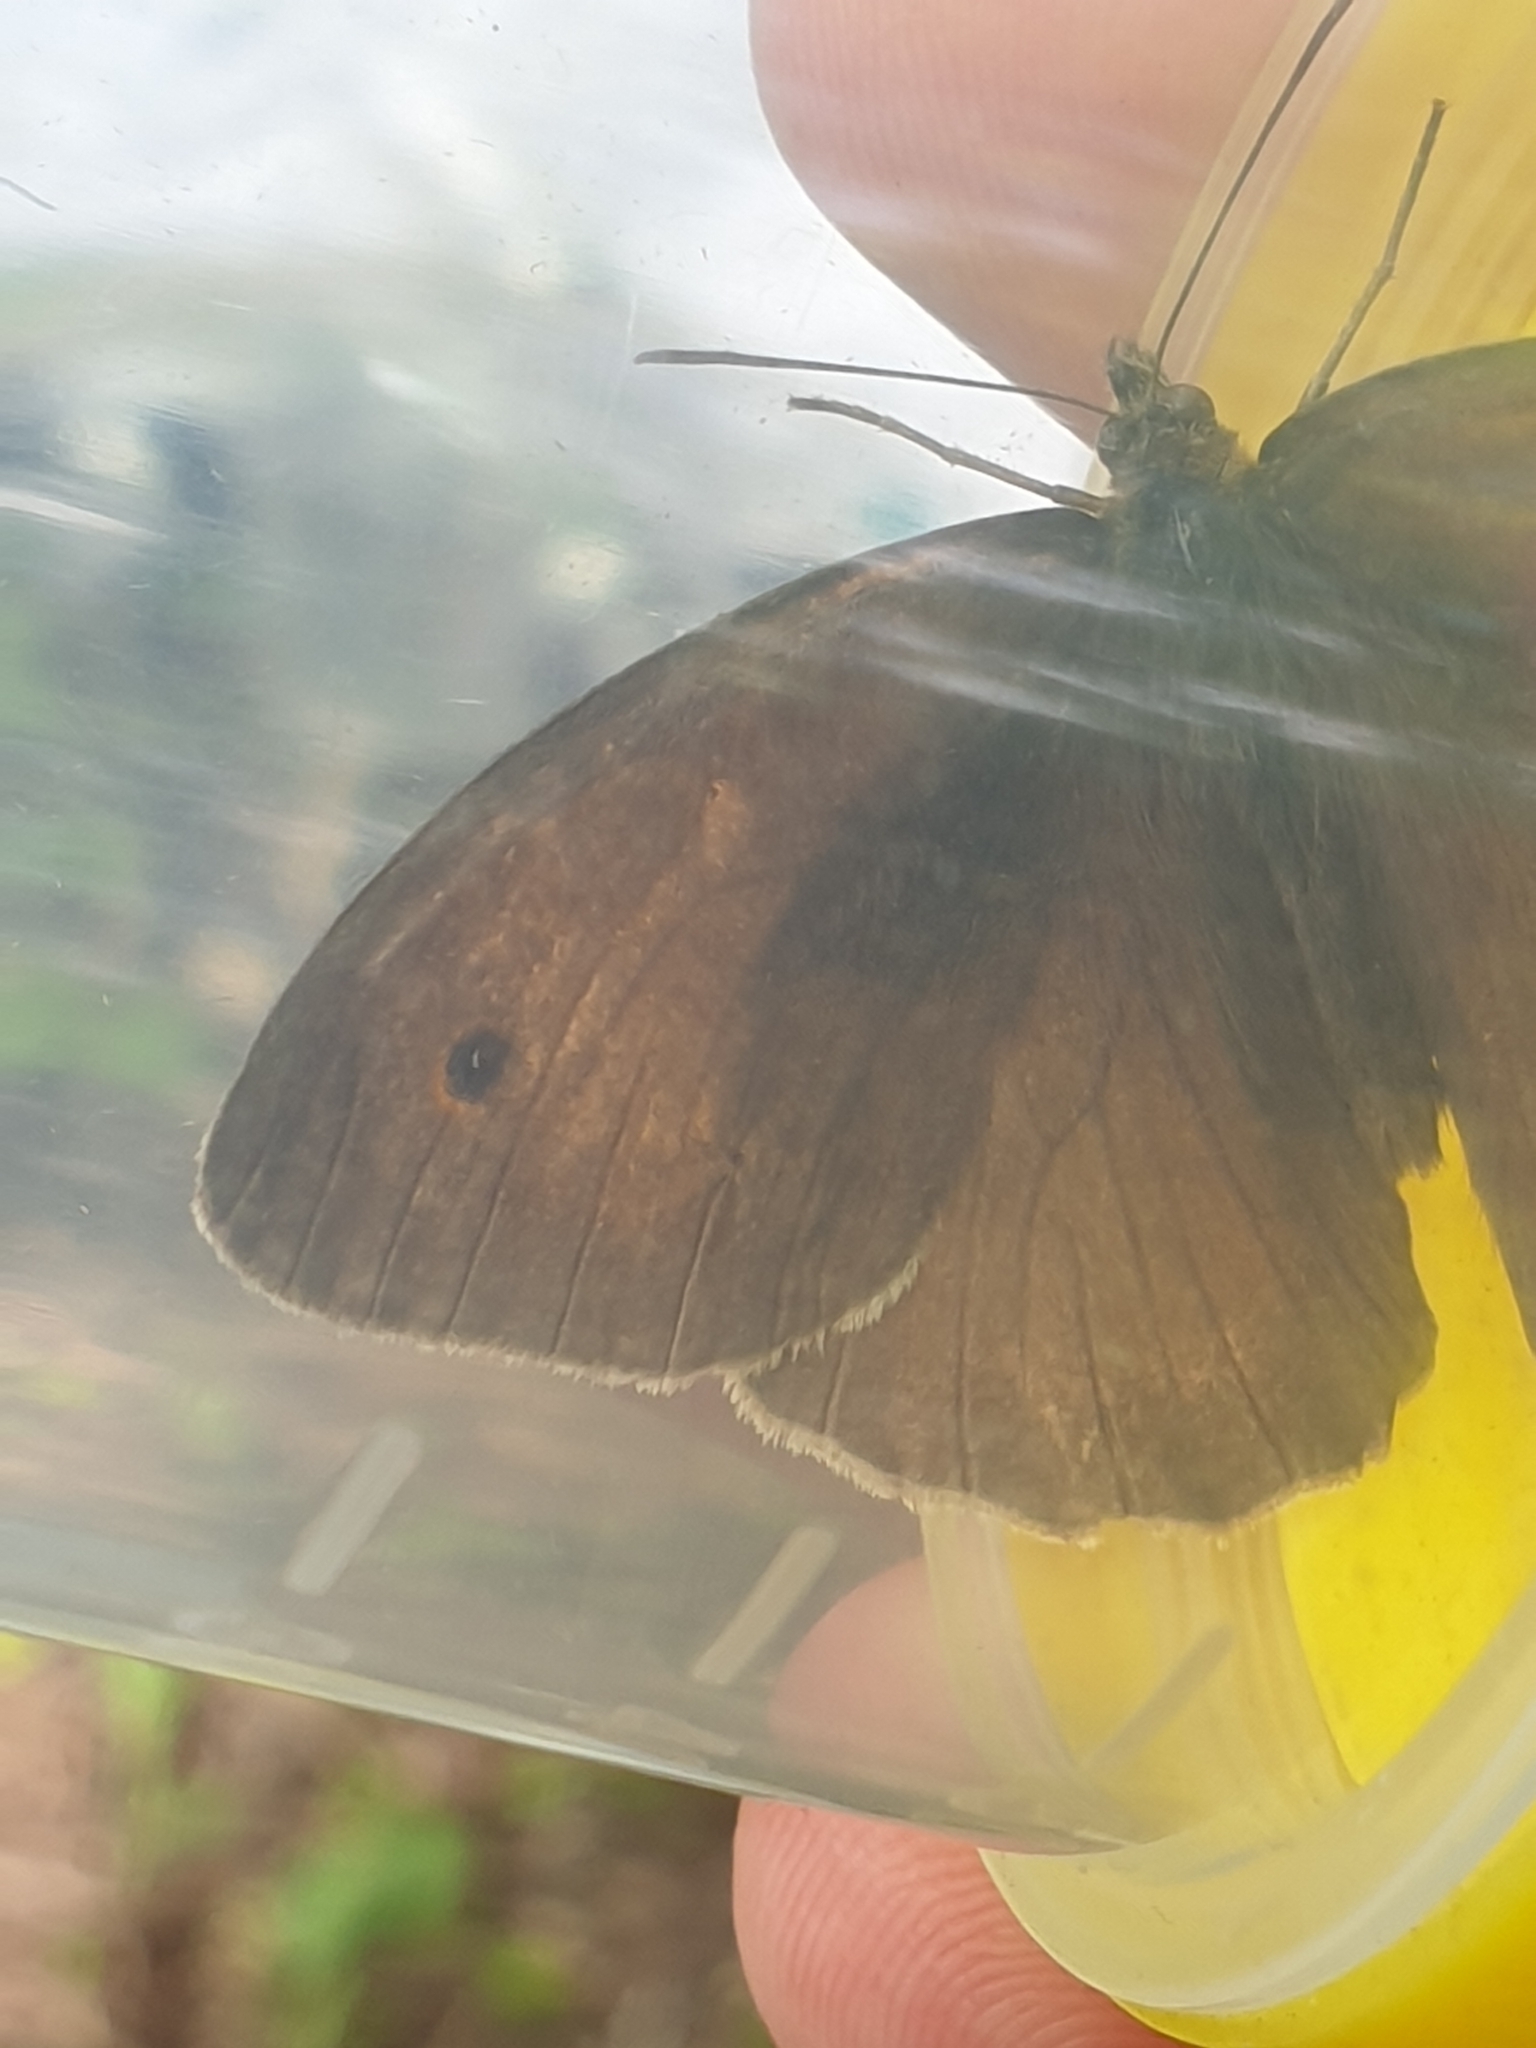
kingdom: Animalia
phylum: Arthropoda
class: Insecta
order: Lepidoptera
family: Nymphalidae
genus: Maniola
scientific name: Maniola jurtina
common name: Meadow brown
